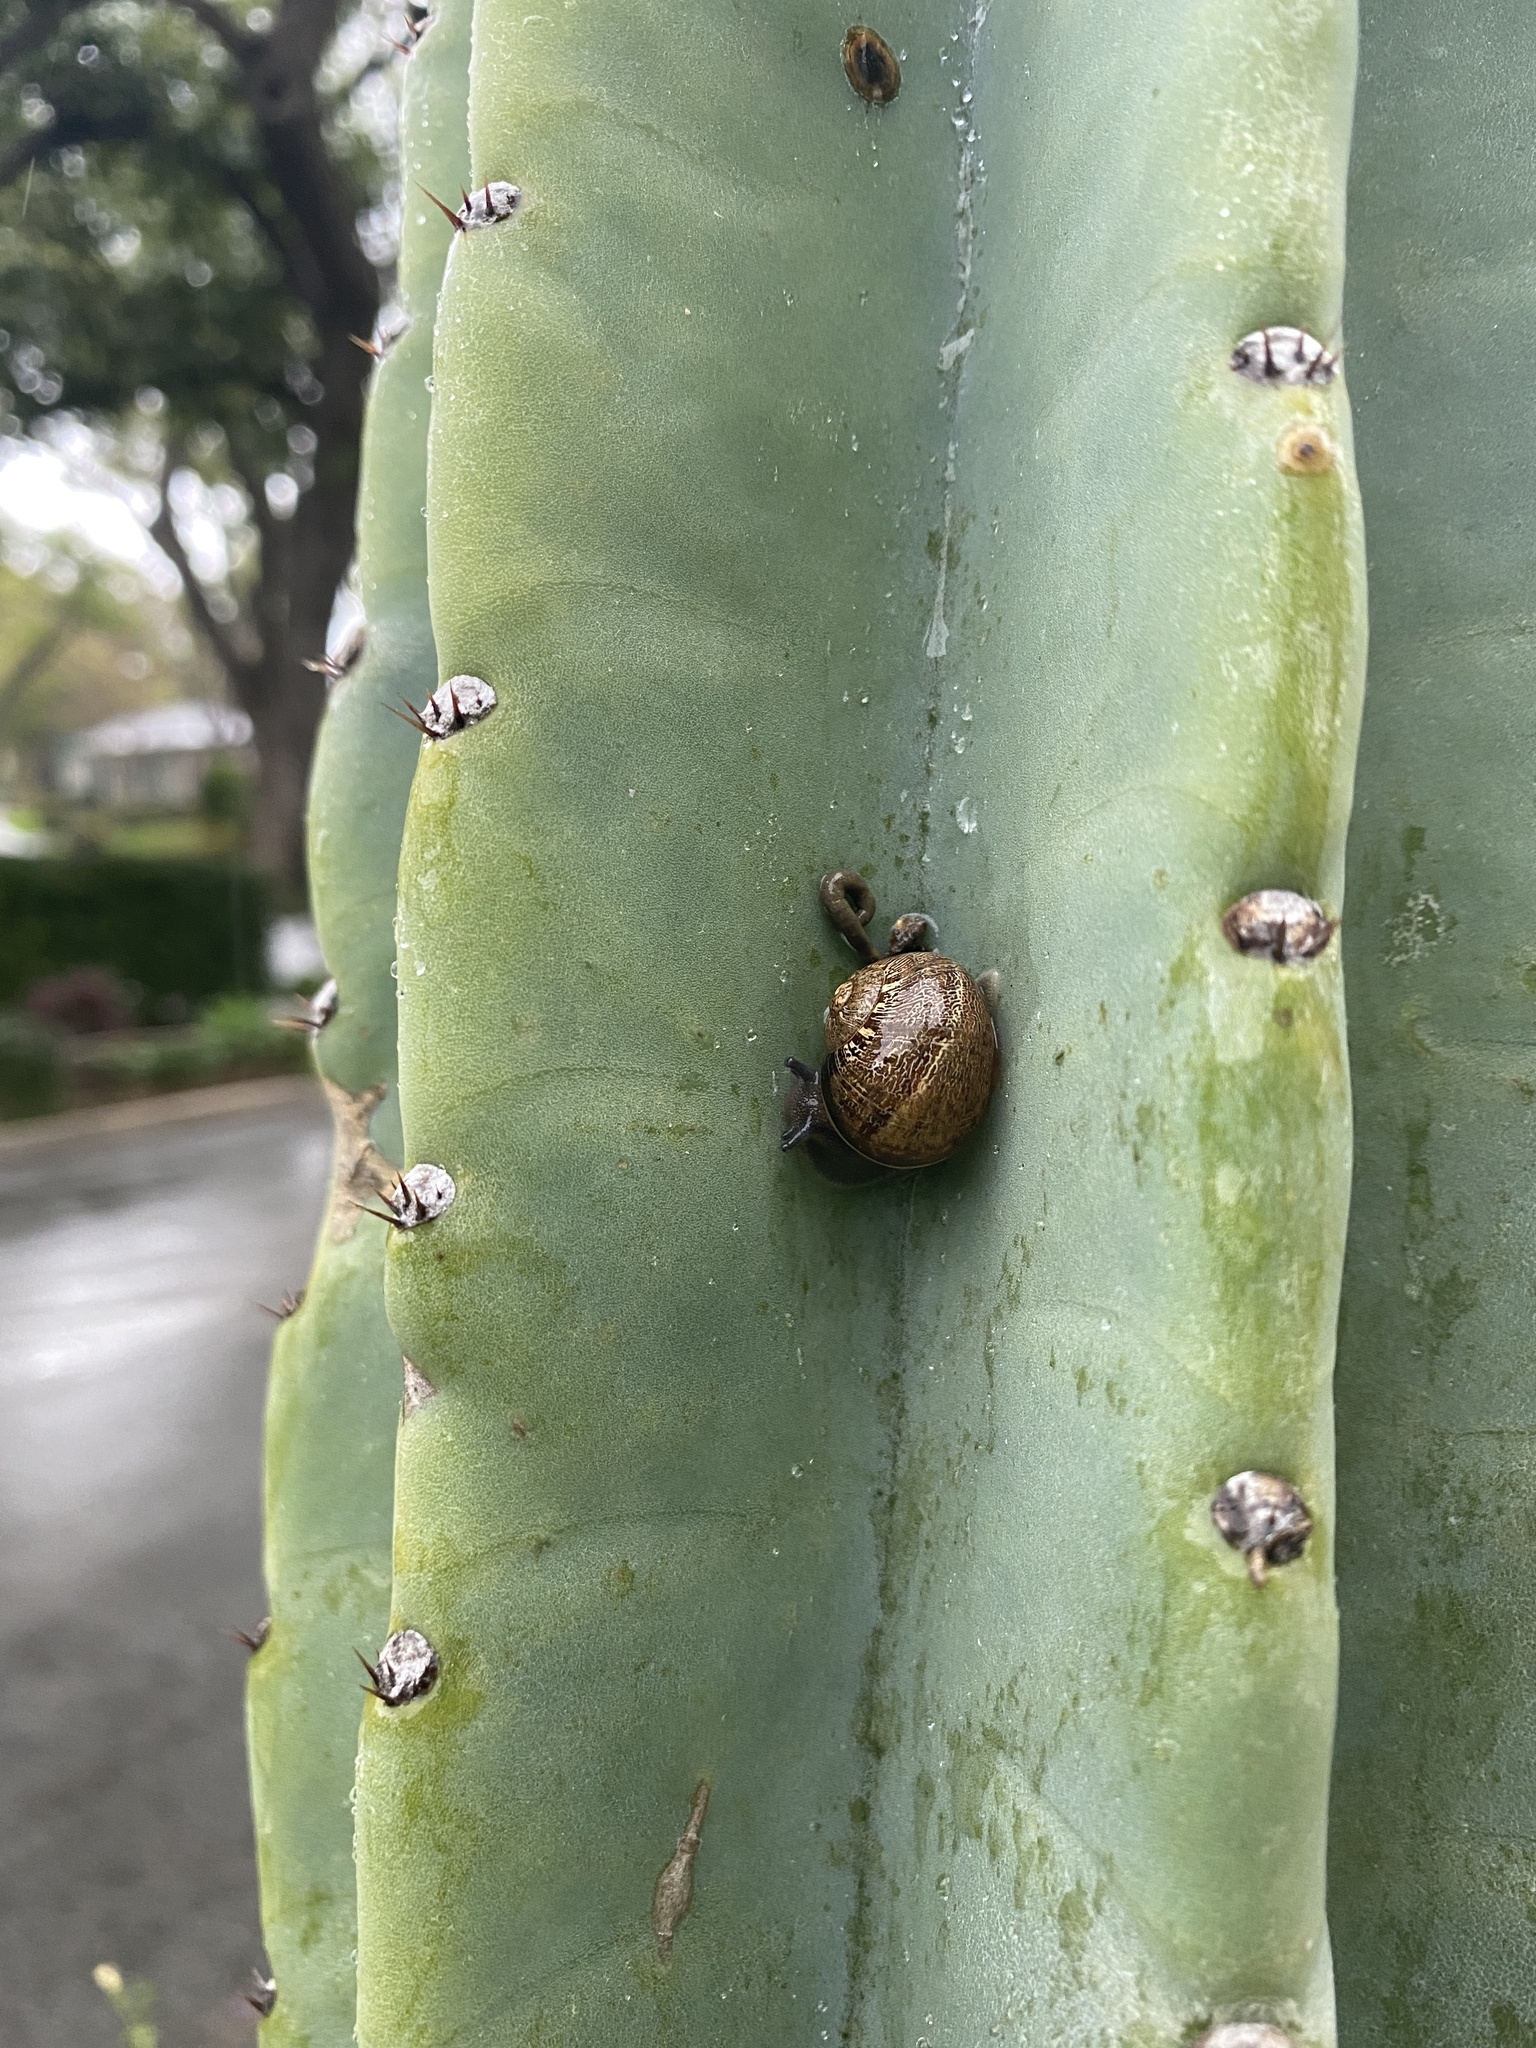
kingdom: Animalia
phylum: Mollusca
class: Gastropoda
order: Stylommatophora
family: Helicidae
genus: Cornu
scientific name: Cornu aspersum
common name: Brown garden snail
